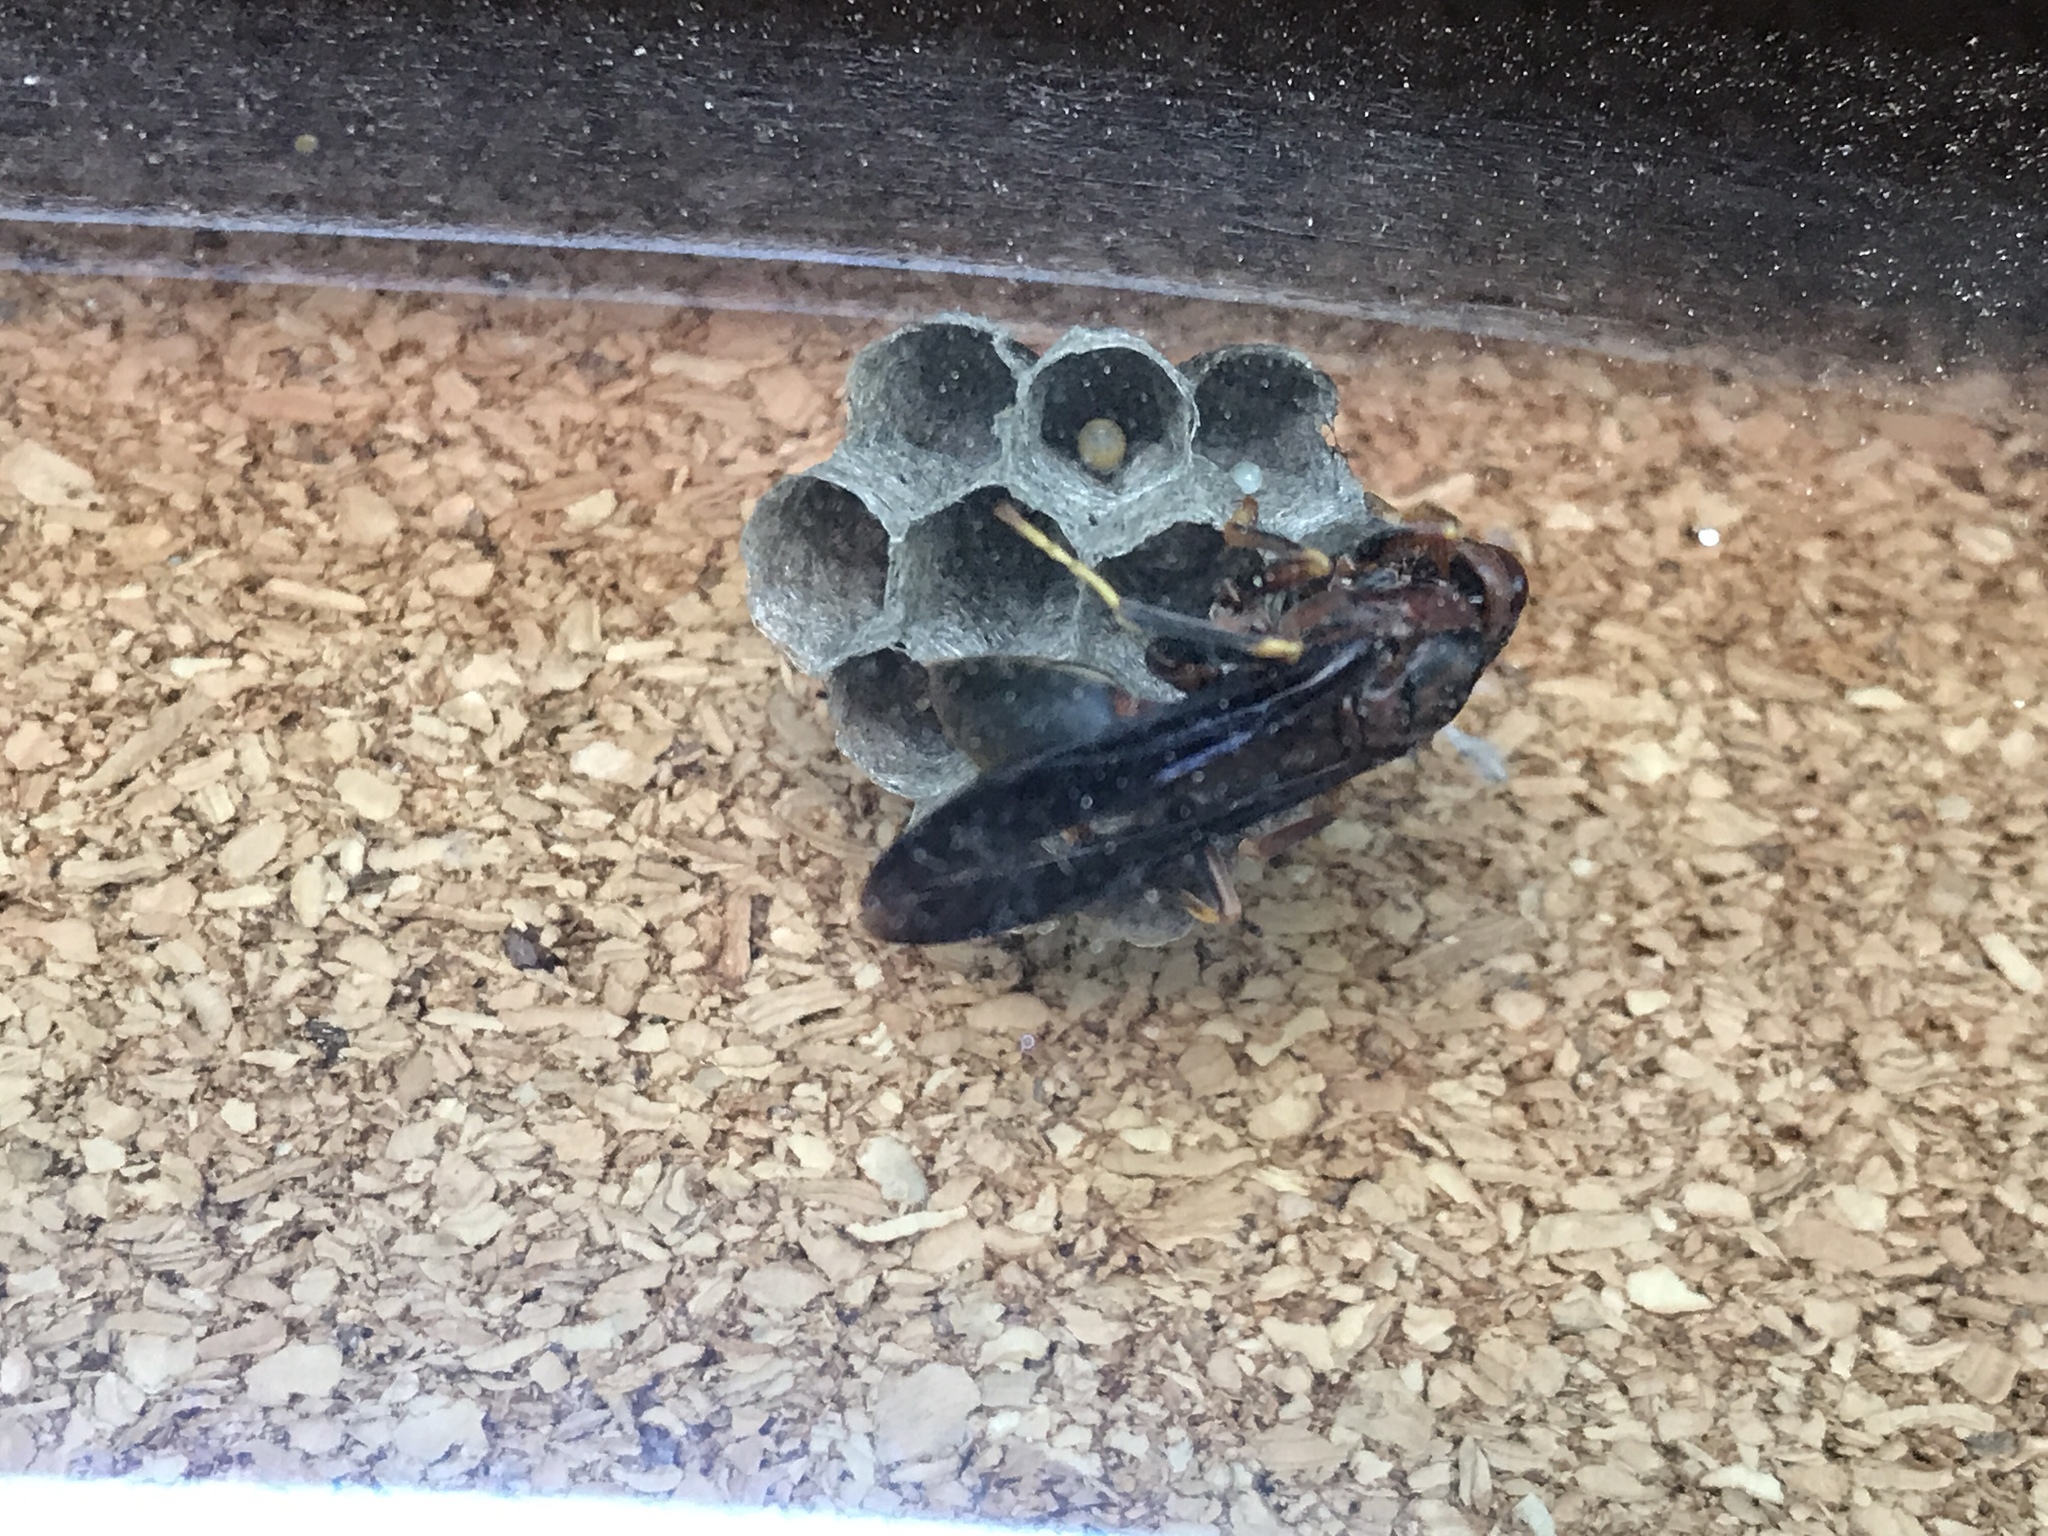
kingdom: Animalia
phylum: Arthropoda
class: Insecta
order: Hymenoptera
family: Vespidae
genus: Fuscopolistes
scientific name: Fuscopolistes
